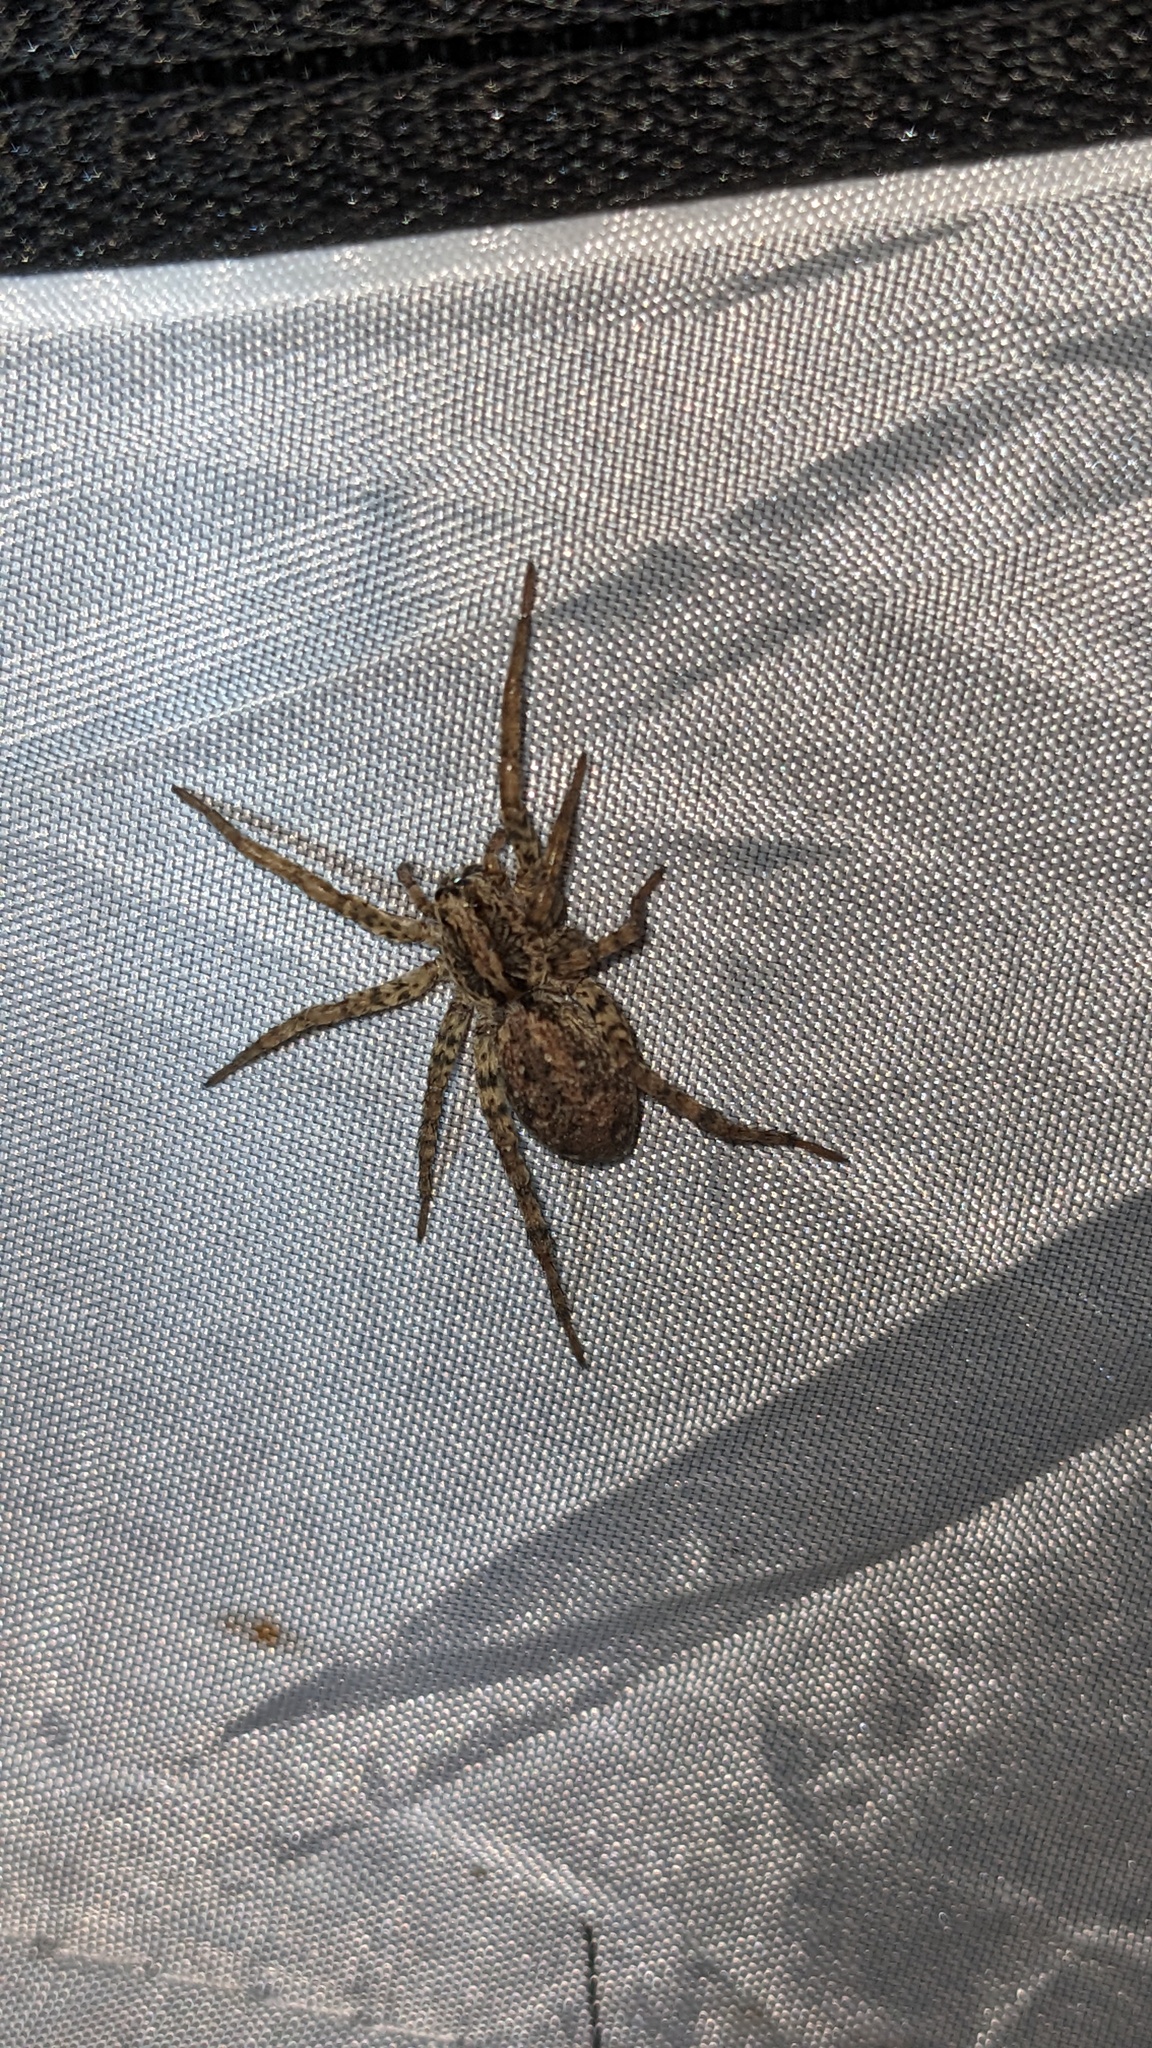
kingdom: Animalia
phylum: Arthropoda
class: Arachnida
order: Araneae
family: Lycosidae
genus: Hogna
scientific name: Hogna antelucana
